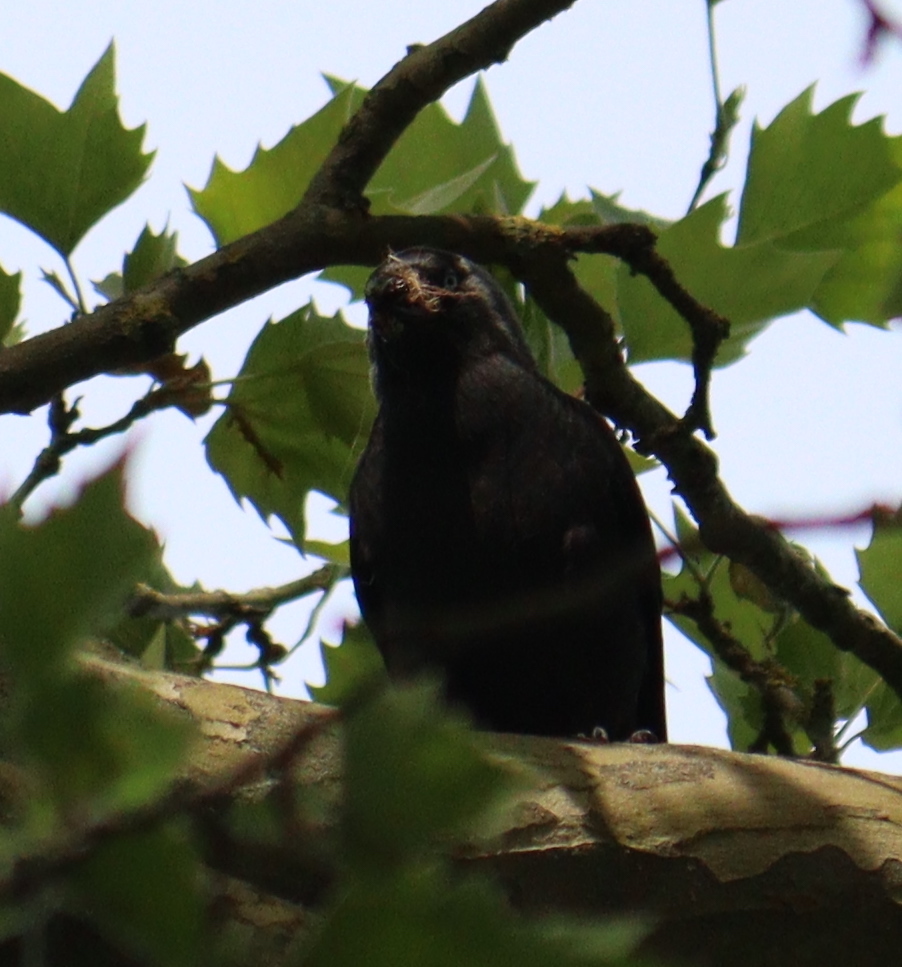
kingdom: Animalia
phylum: Chordata
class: Aves
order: Passeriformes
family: Corvidae
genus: Coloeus
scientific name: Coloeus monedula
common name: Western jackdaw
